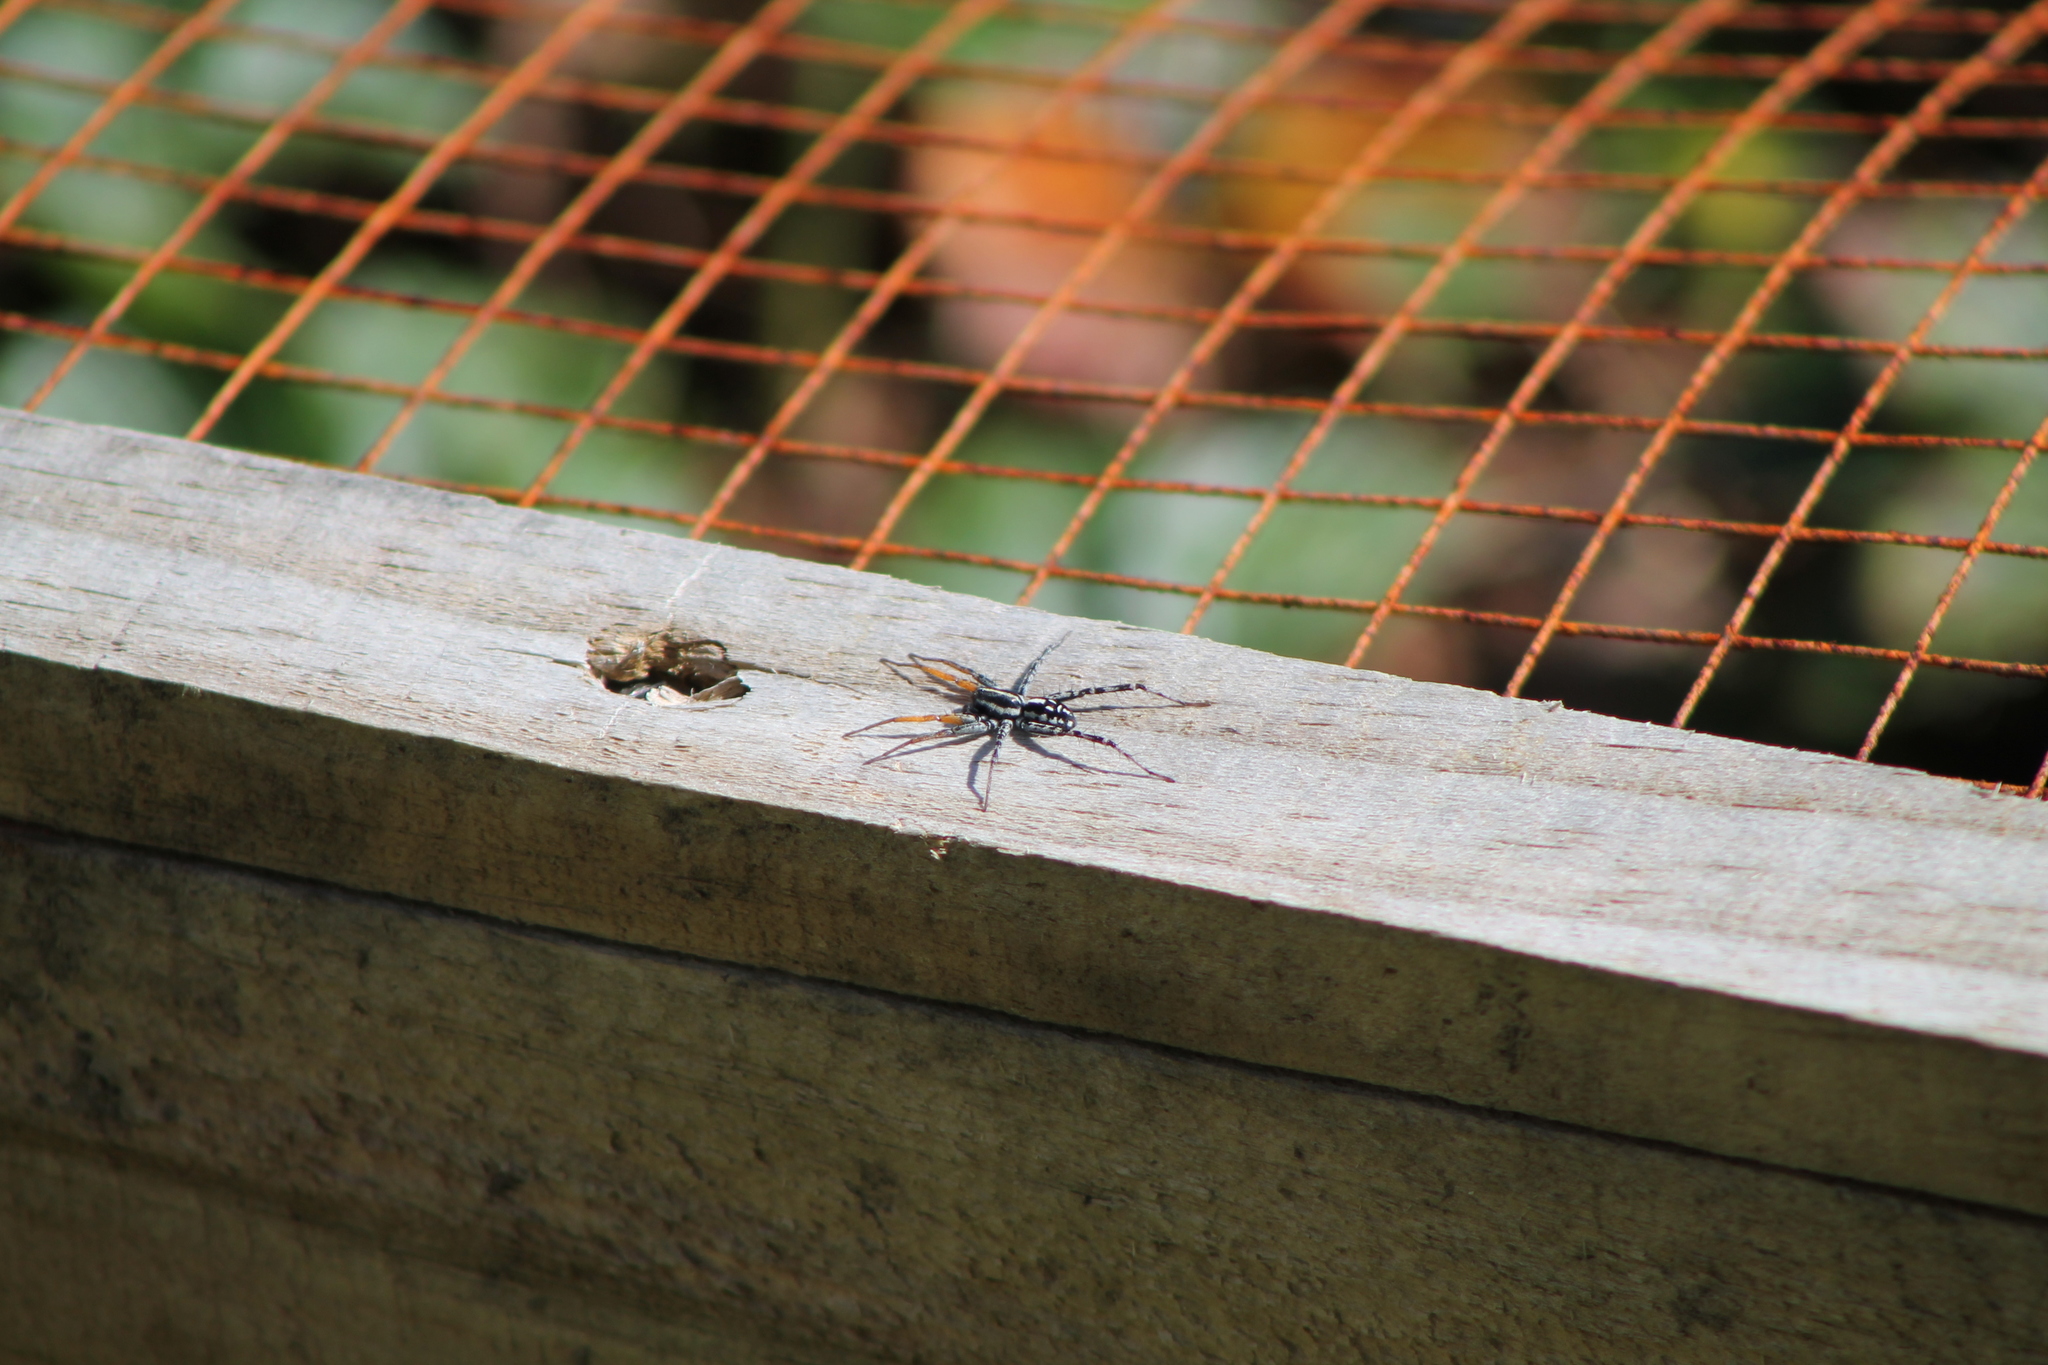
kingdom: Animalia
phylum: Arthropoda
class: Arachnida
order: Araneae
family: Corinnidae
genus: Nyssus
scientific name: Nyssus coloripes
